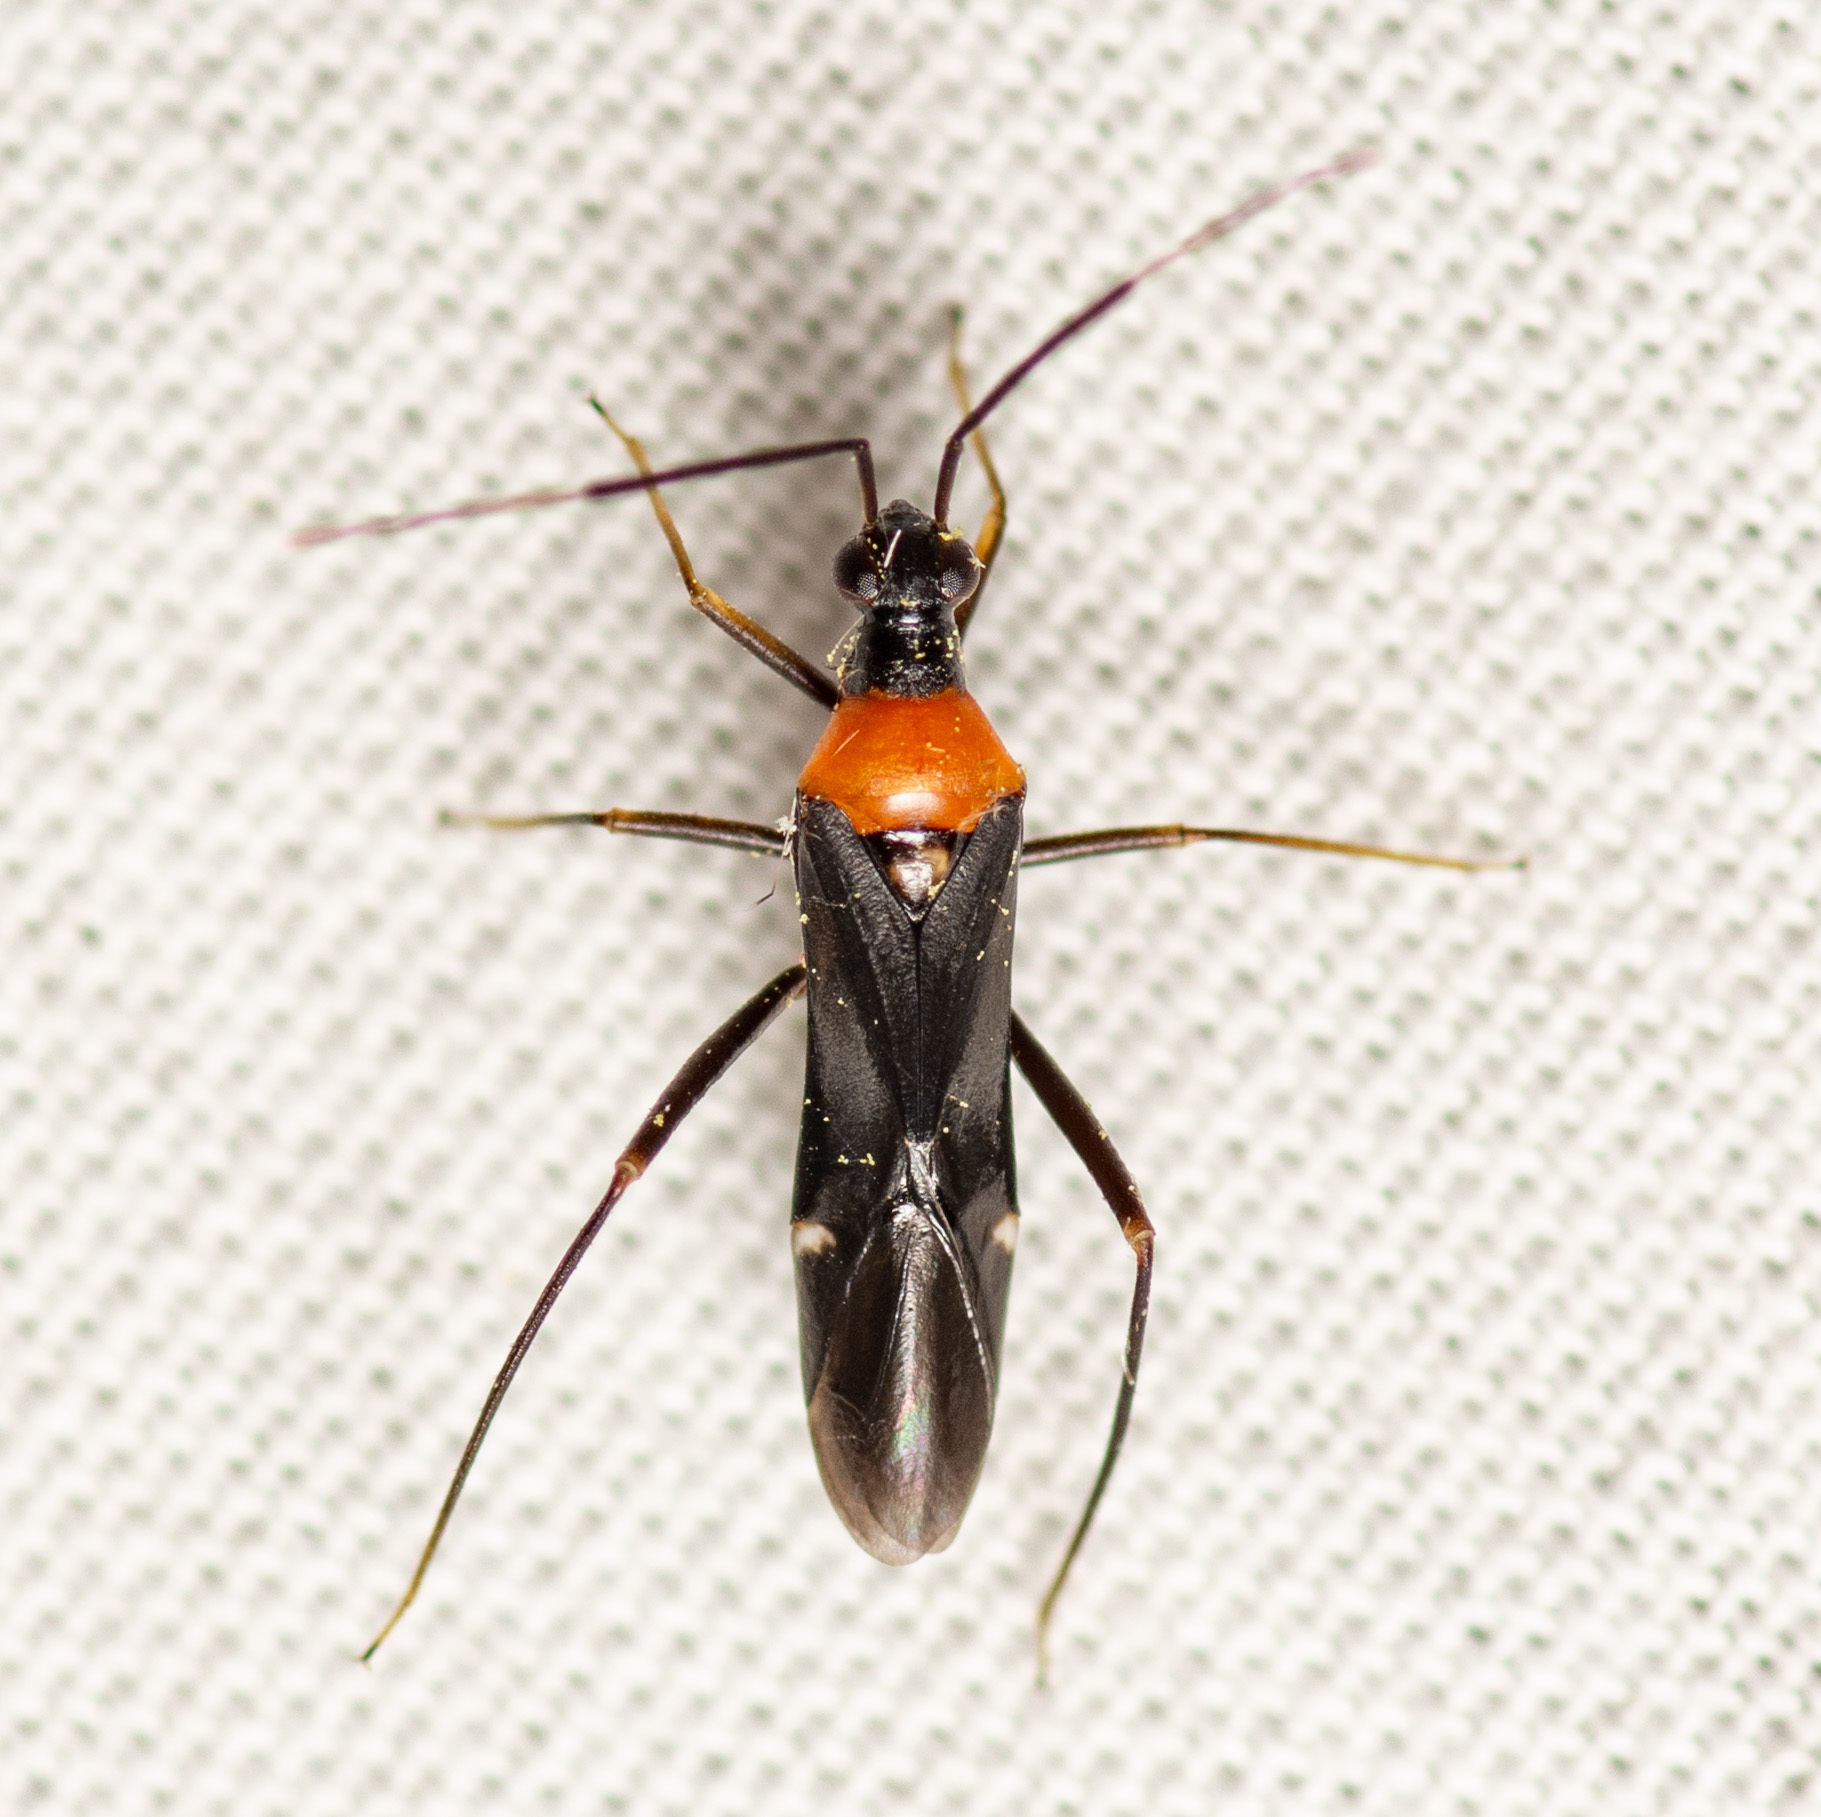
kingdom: Animalia
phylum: Arthropoda
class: Insecta
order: Hemiptera
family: Miridae
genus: Pseudoxenetus
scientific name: Pseudoxenetus regalis
